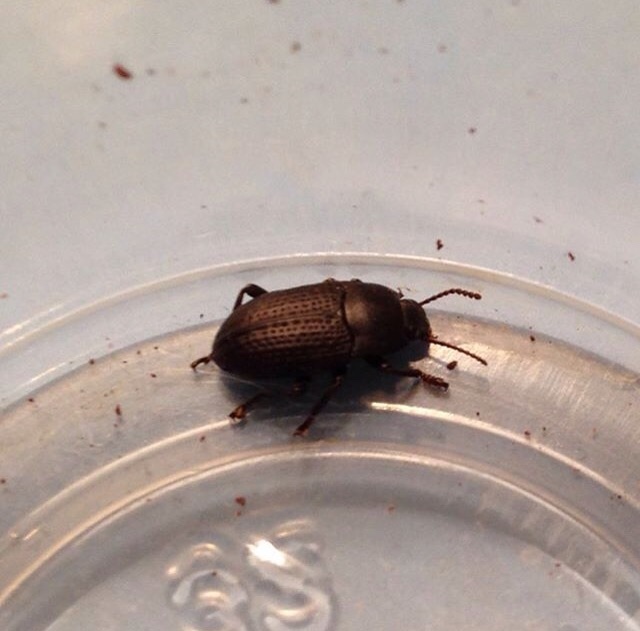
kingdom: Animalia
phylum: Arthropoda
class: Insecta
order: Coleoptera
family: Tenebrionidae
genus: Asiopus
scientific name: Asiopus
